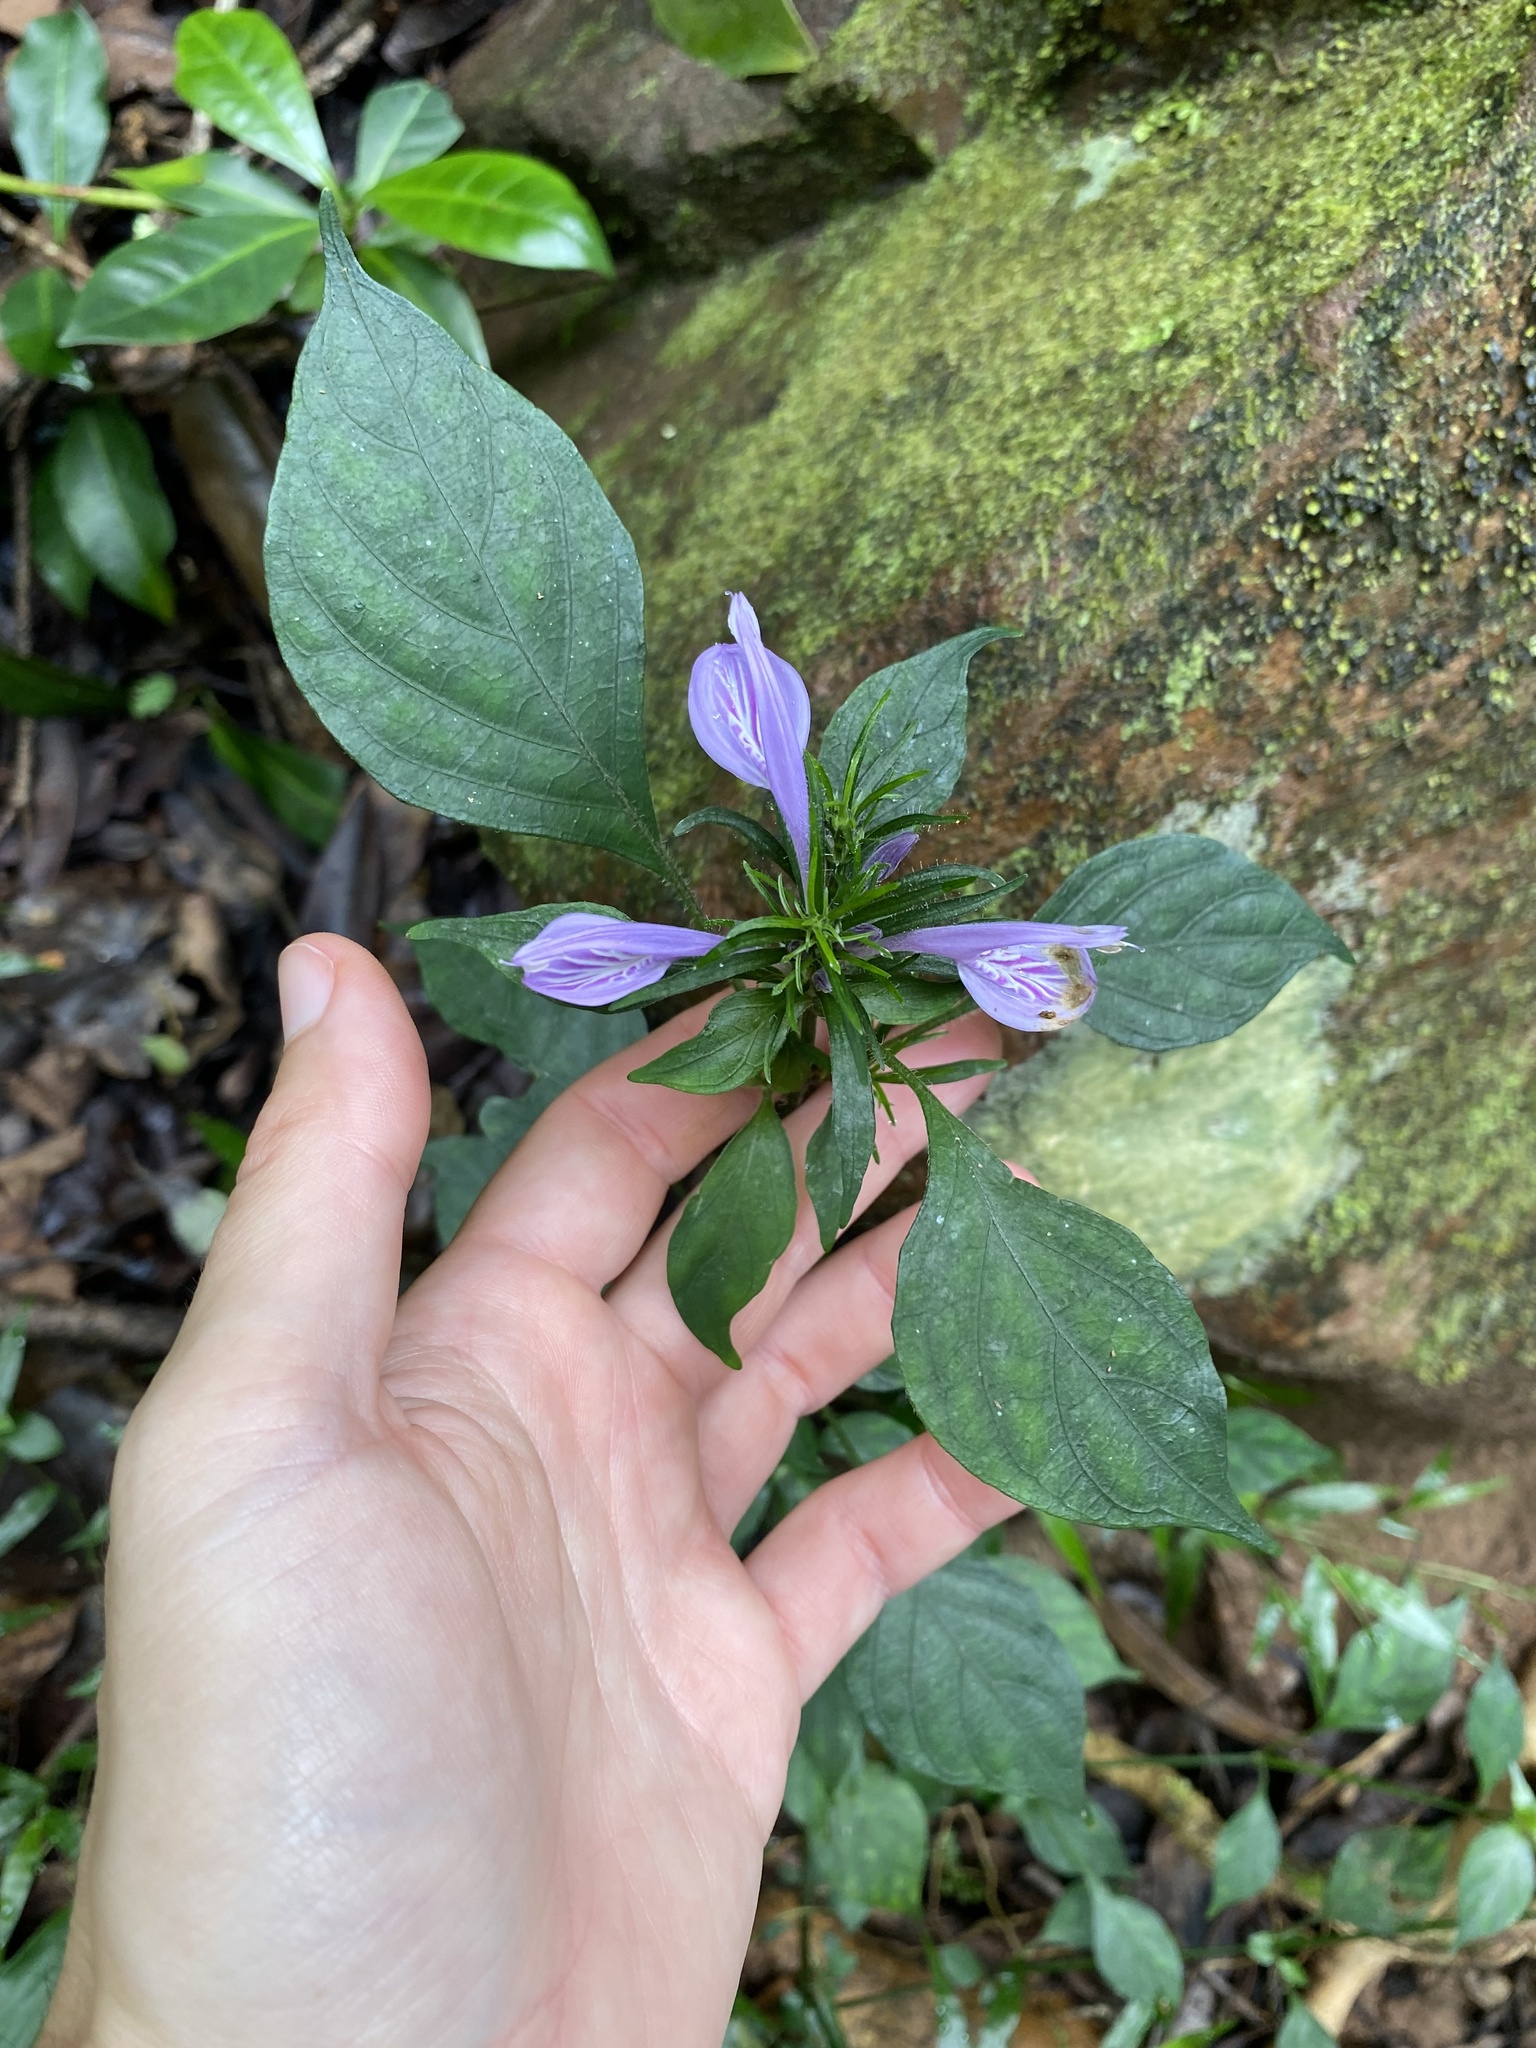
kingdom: Plantae
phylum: Tracheophyta
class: Magnoliopsida
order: Lamiales
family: Acanthaceae
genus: Isoglossa
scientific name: Isoglossa cooperi
